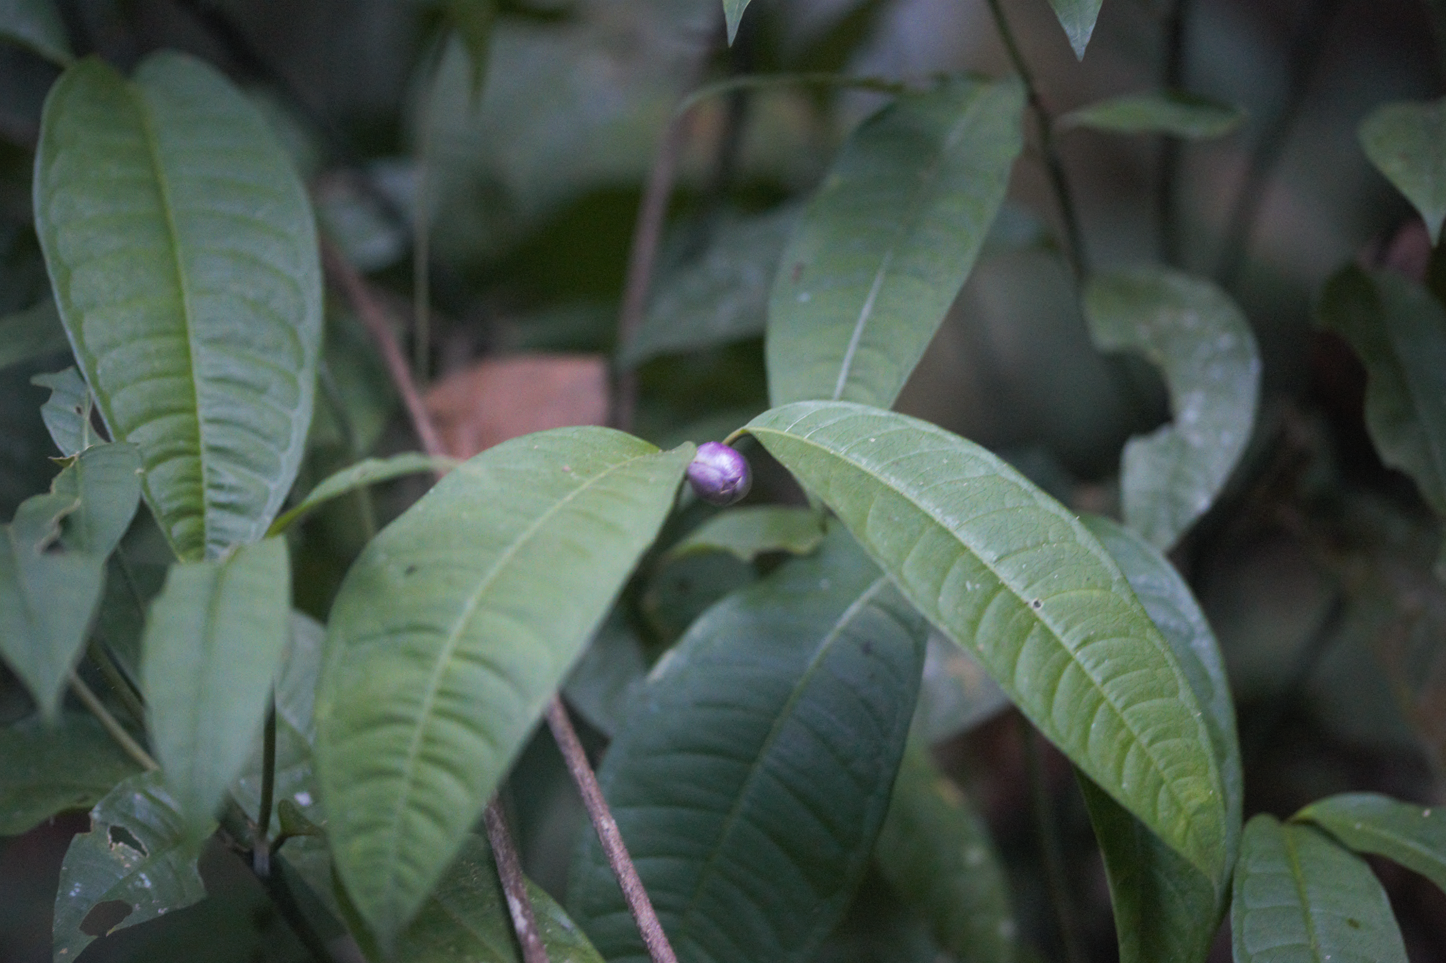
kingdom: Plantae
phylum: Tracheophyta
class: Magnoliopsida
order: Gentianales
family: Rubiaceae
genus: Palicourea
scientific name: Palicourea apoda
